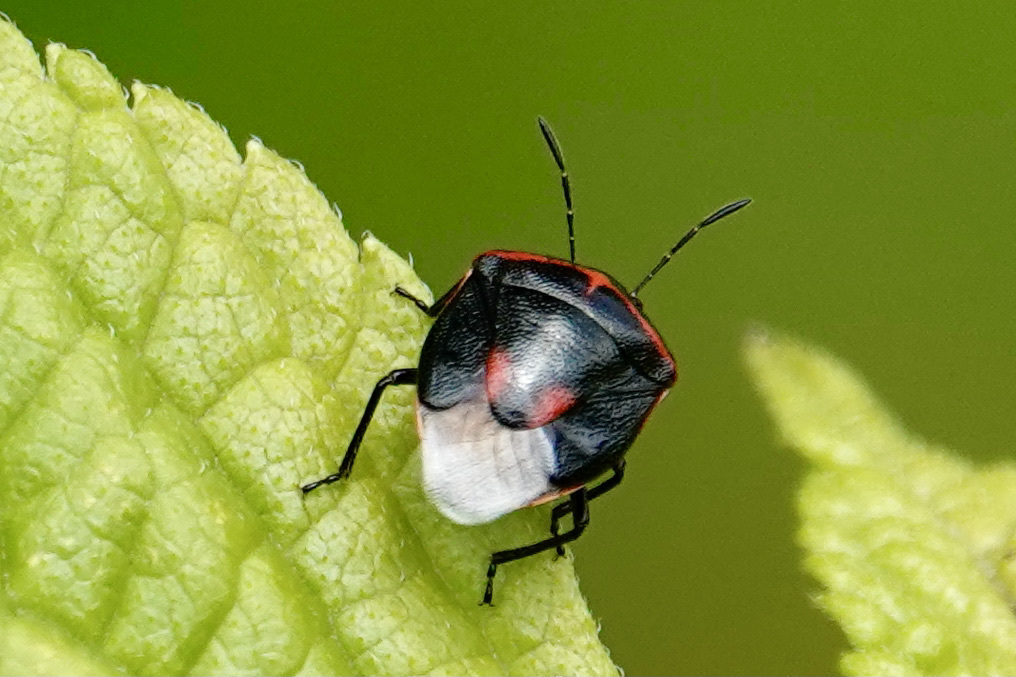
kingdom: Animalia
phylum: Arthropoda
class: Insecta
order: Hemiptera
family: Pentatomidae
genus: Cosmopepla
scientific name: Cosmopepla lintneriana
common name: Twice-stabbed stink bug
